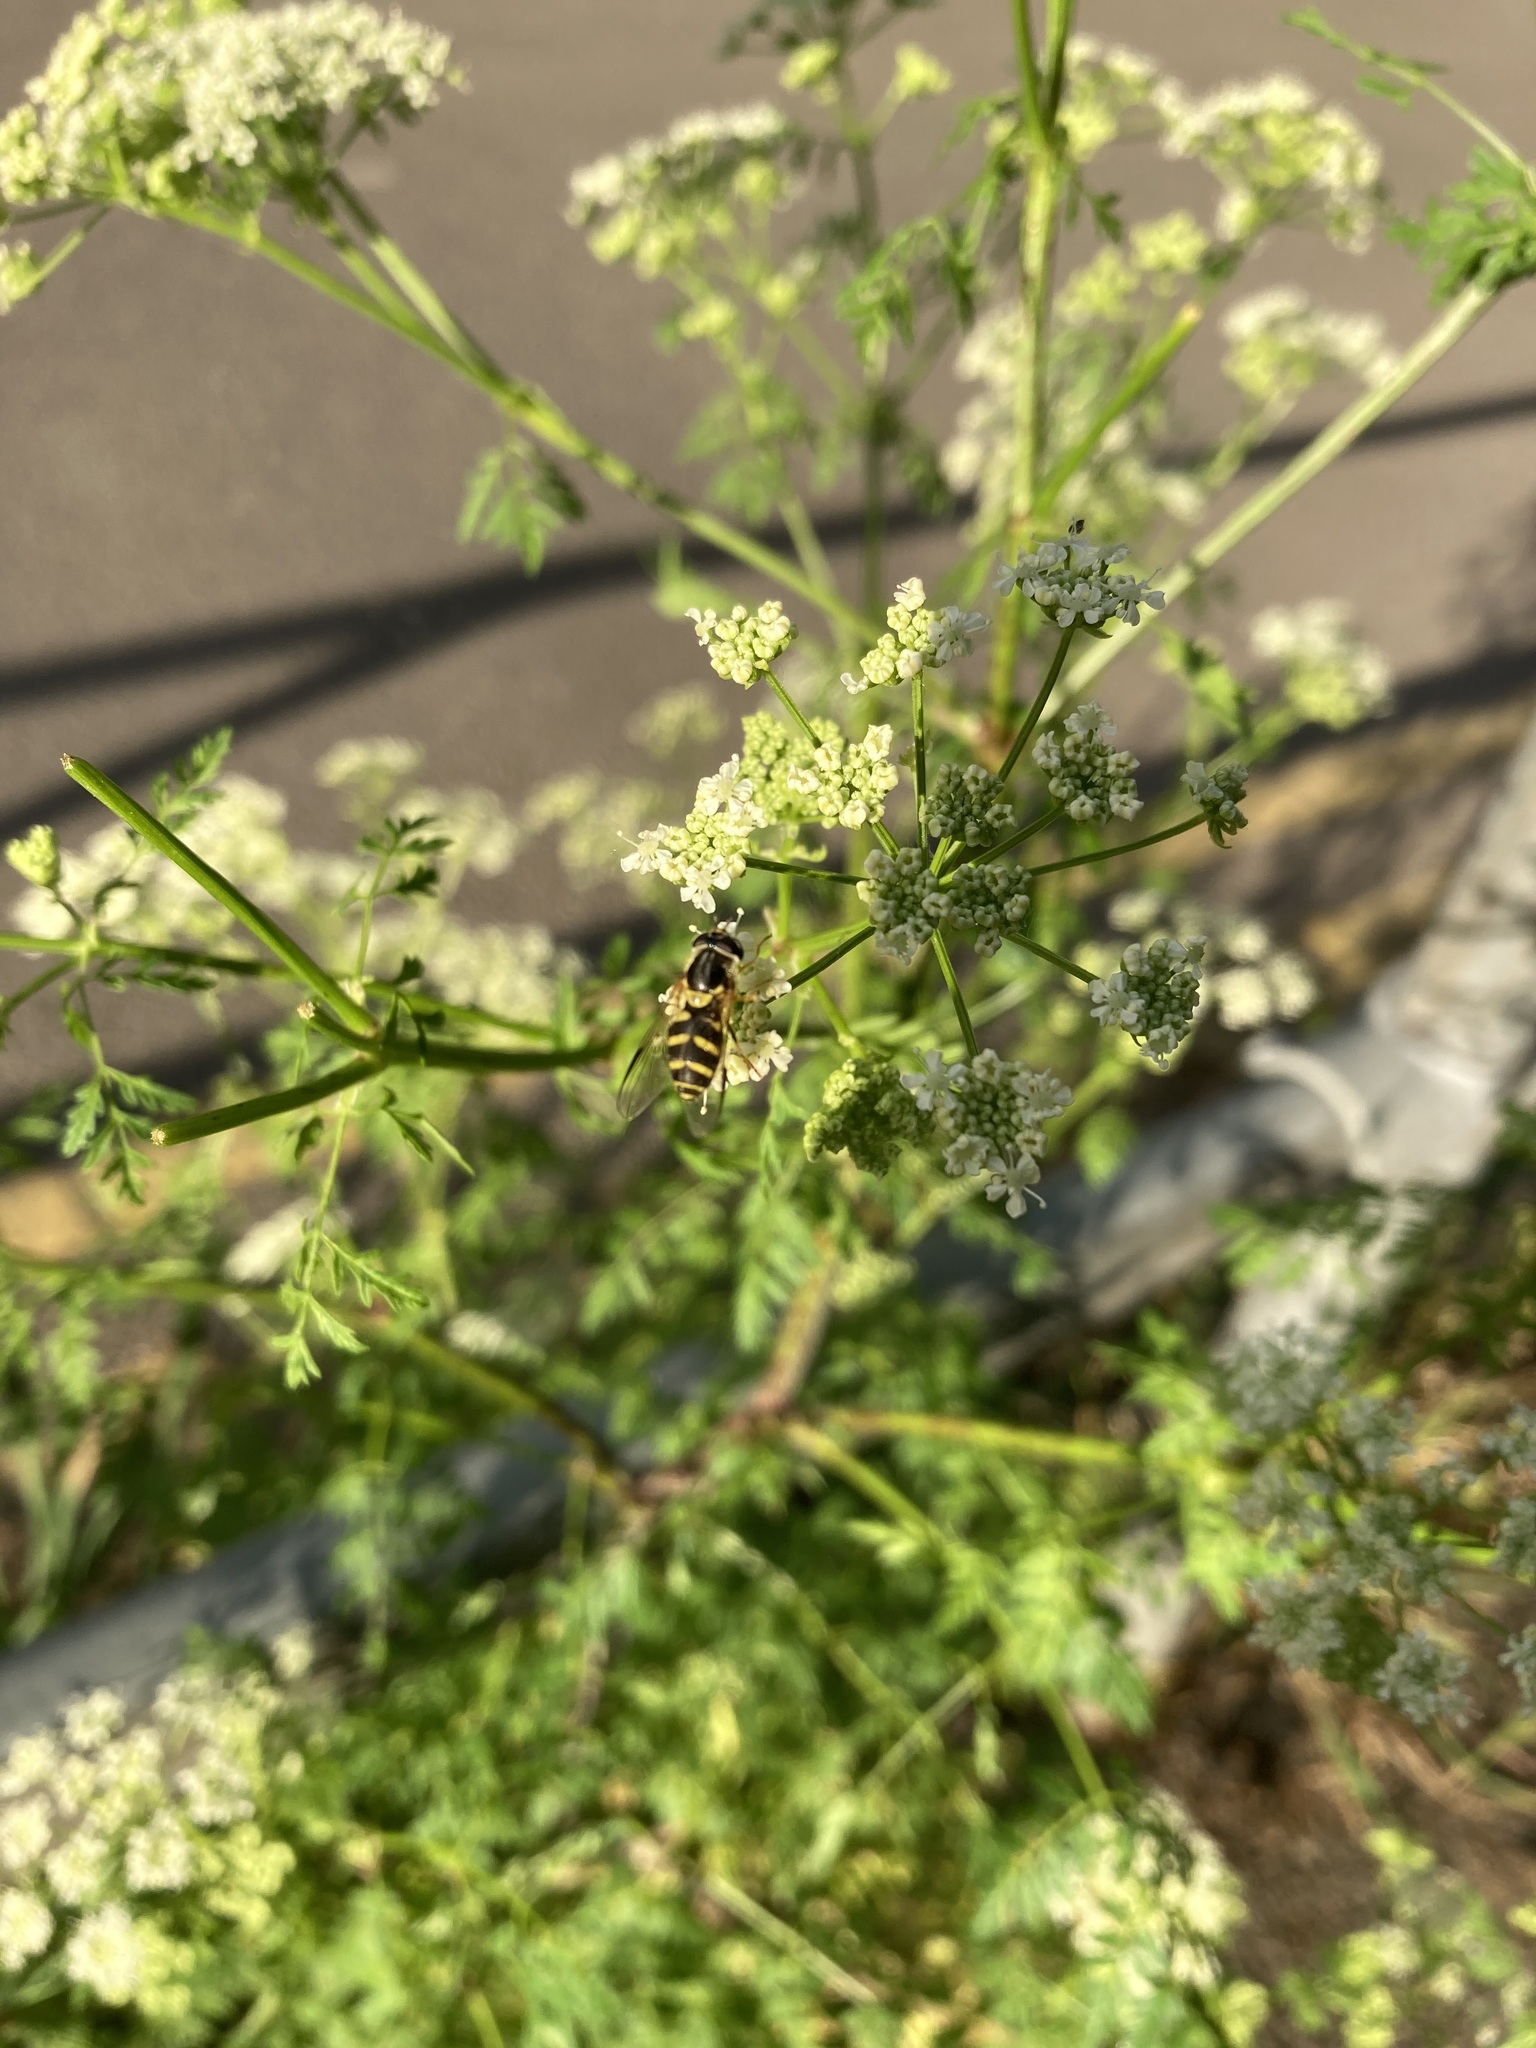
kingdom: Animalia
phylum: Arthropoda
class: Insecta
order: Diptera
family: Syrphidae
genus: Dasysyrphus
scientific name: Dasysyrphus albostriatus
